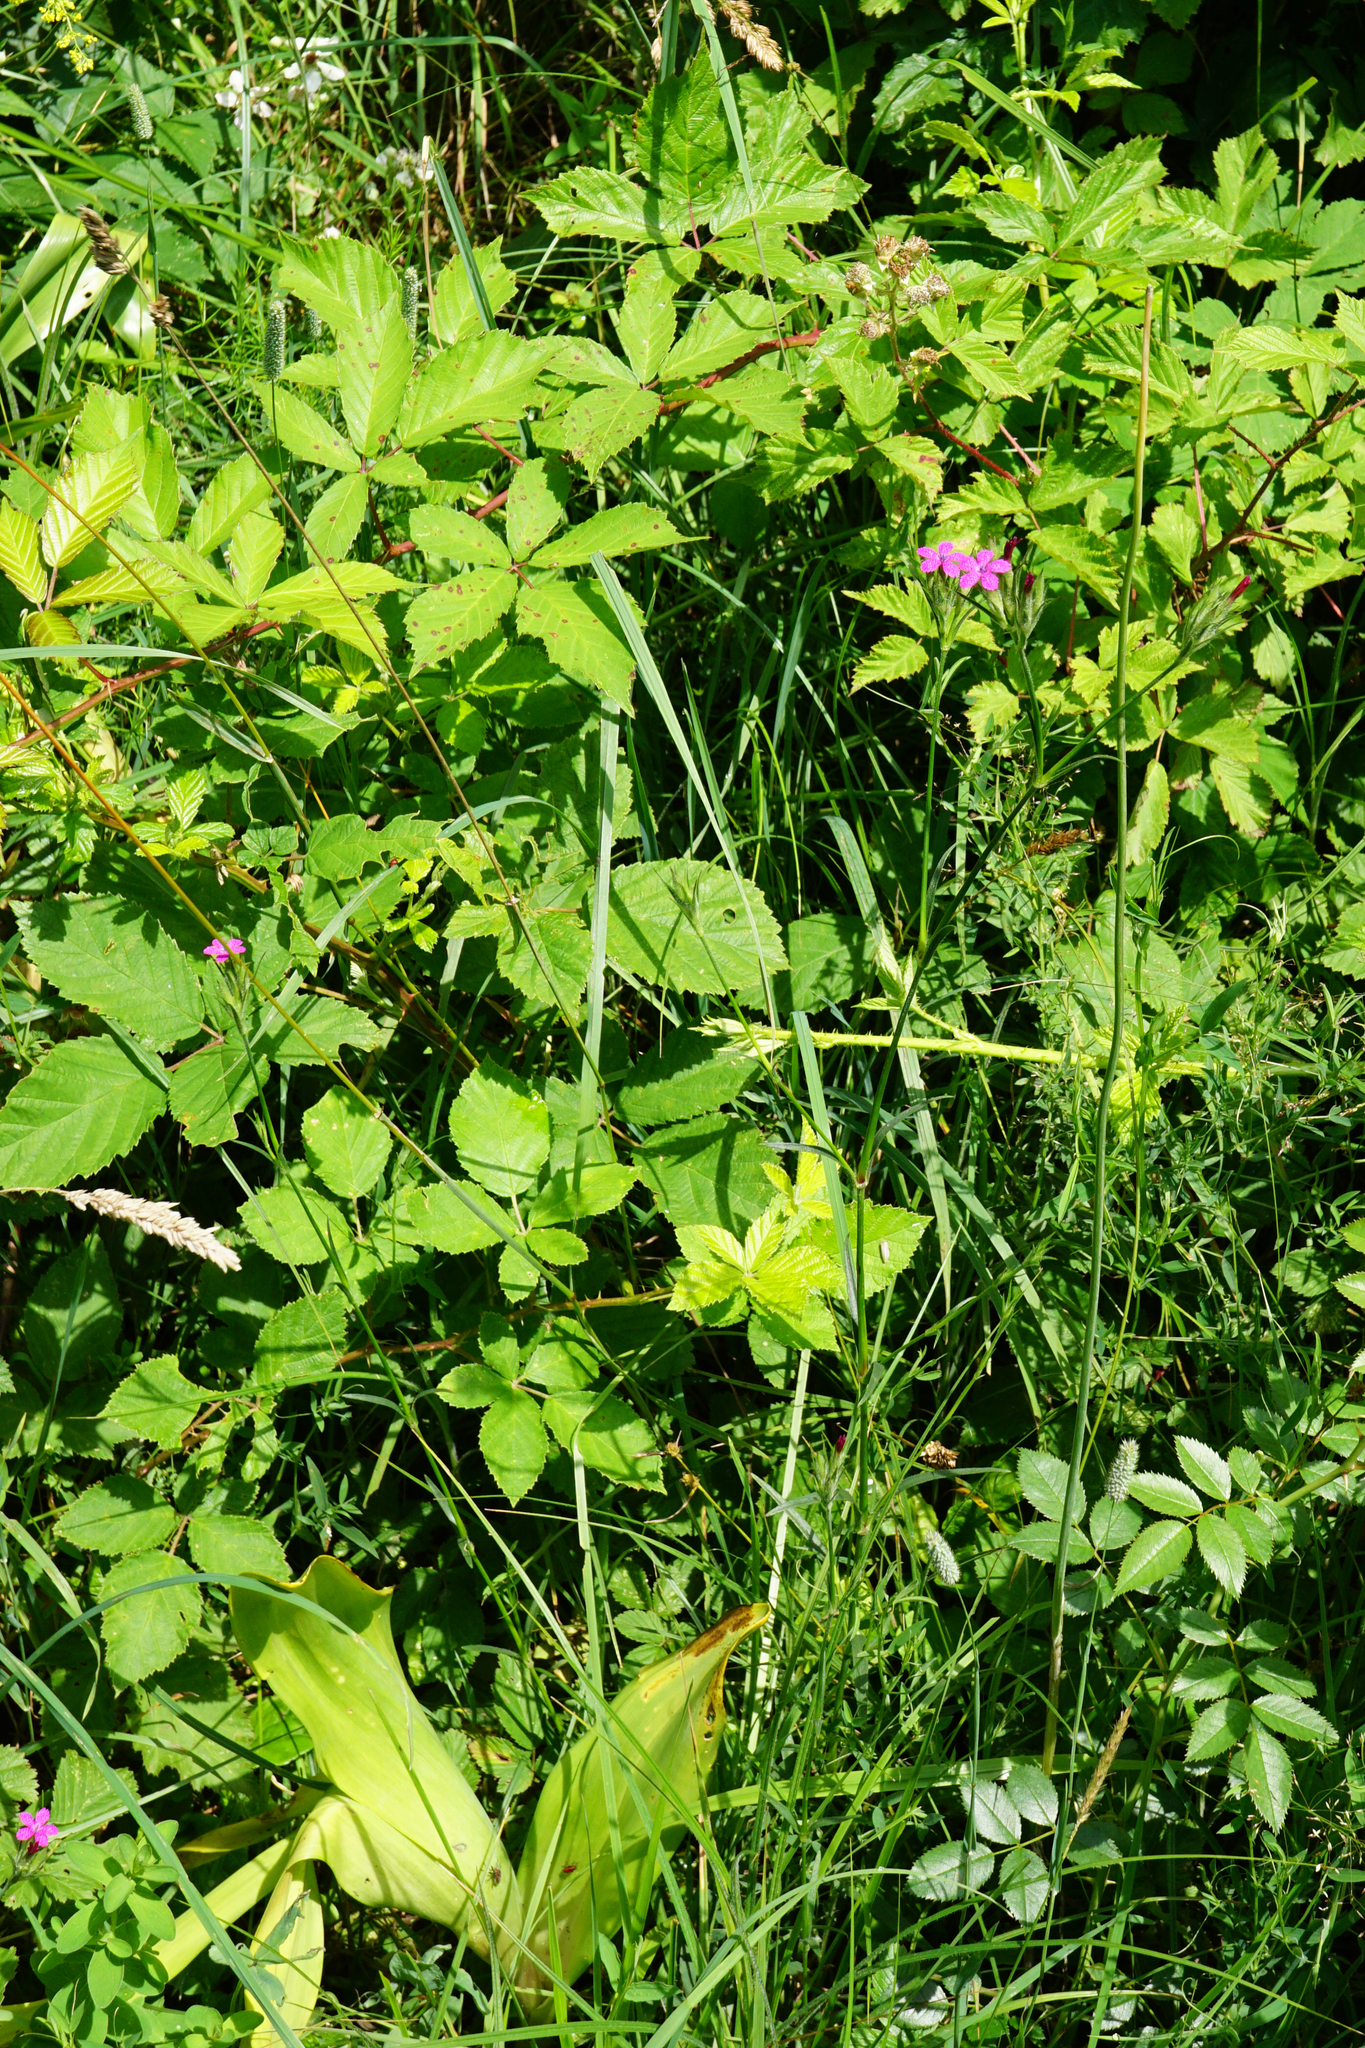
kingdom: Plantae
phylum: Tracheophyta
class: Magnoliopsida
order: Caryophyllales
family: Caryophyllaceae
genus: Dianthus
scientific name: Dianthus armeria
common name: Deptford pink
